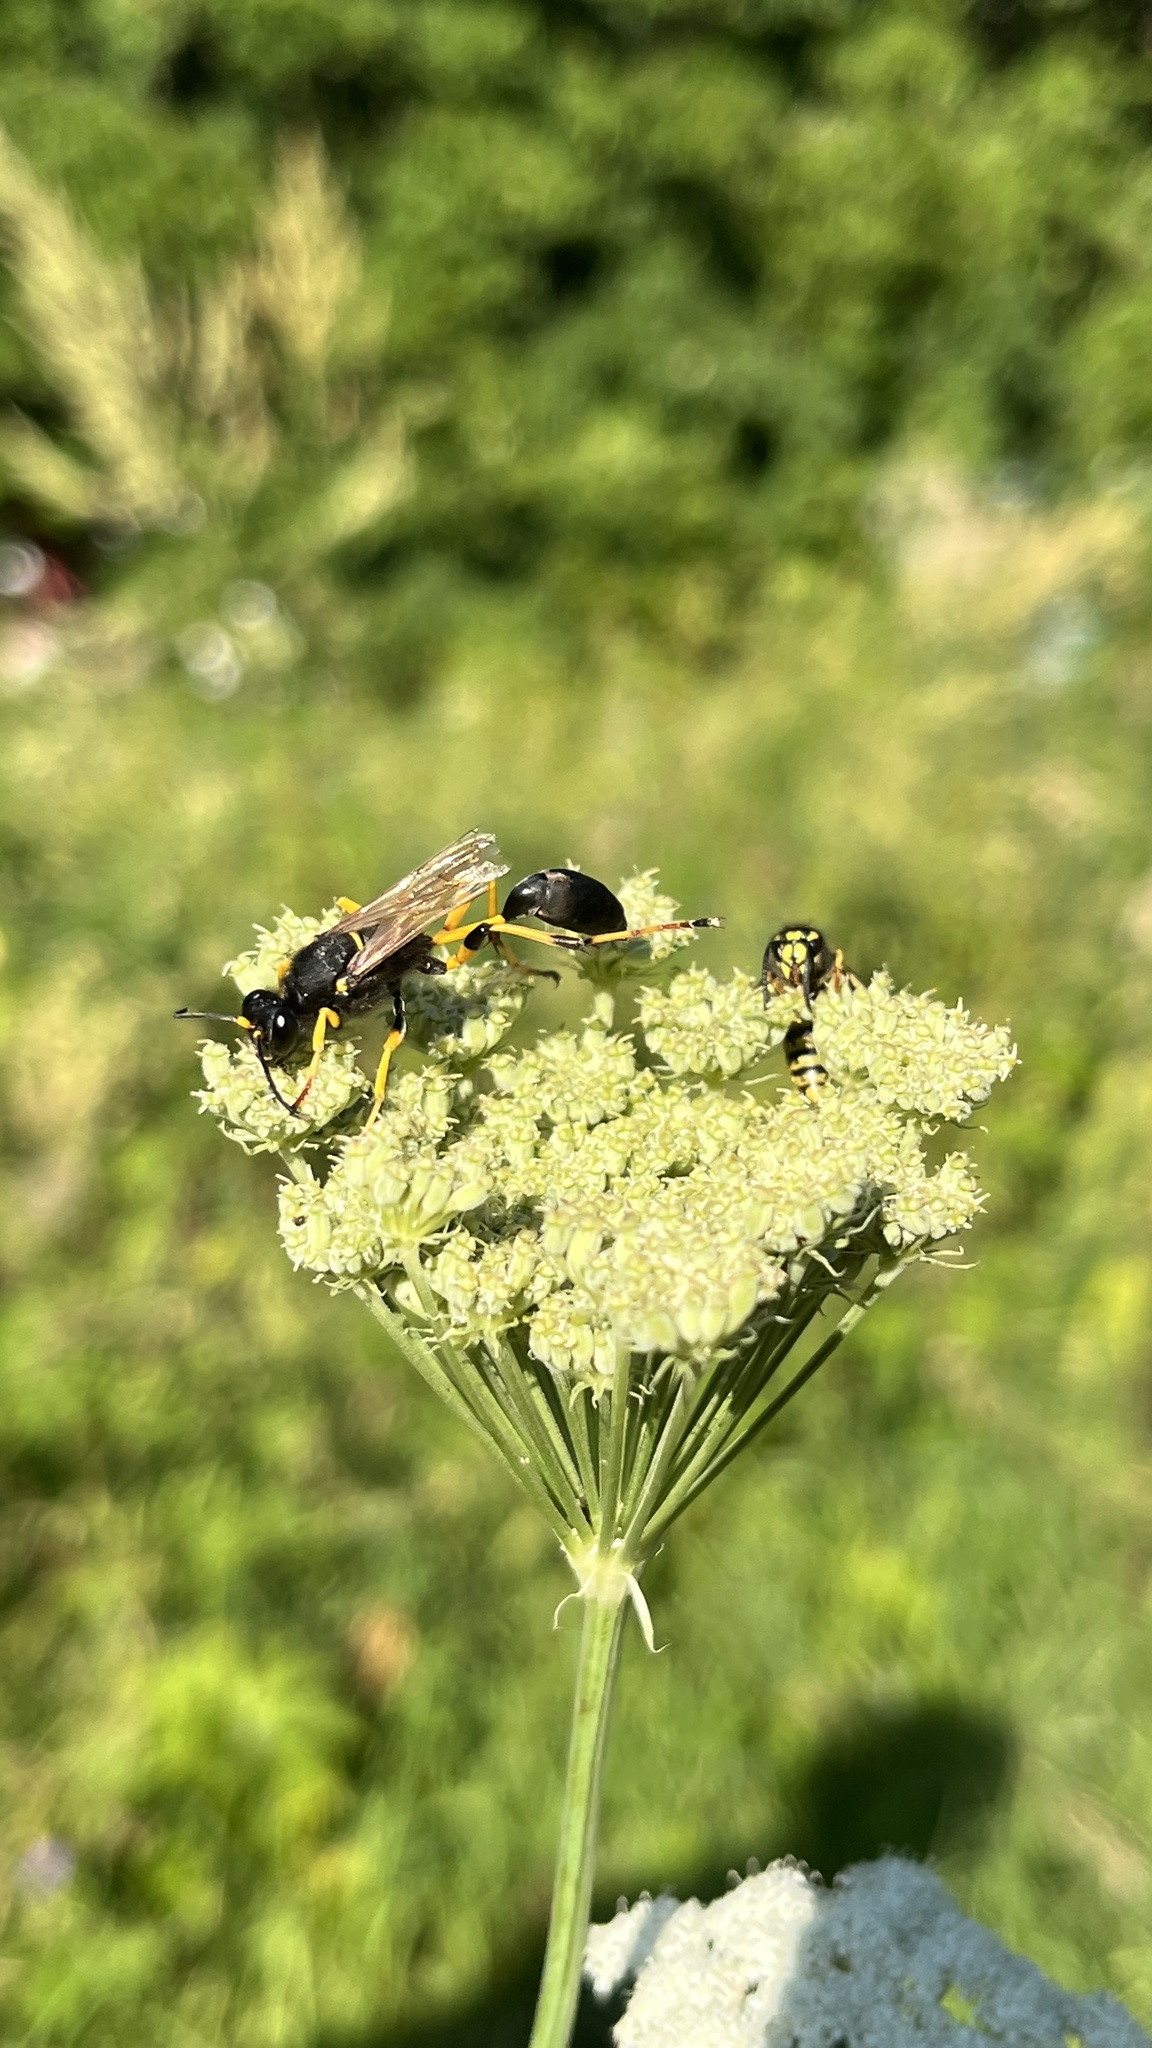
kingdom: Animalia
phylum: Arthropoda
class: Insecta
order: Hymenoptera
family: Sphecidae
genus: Sceliphron
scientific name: Sceliphron destillatorium
